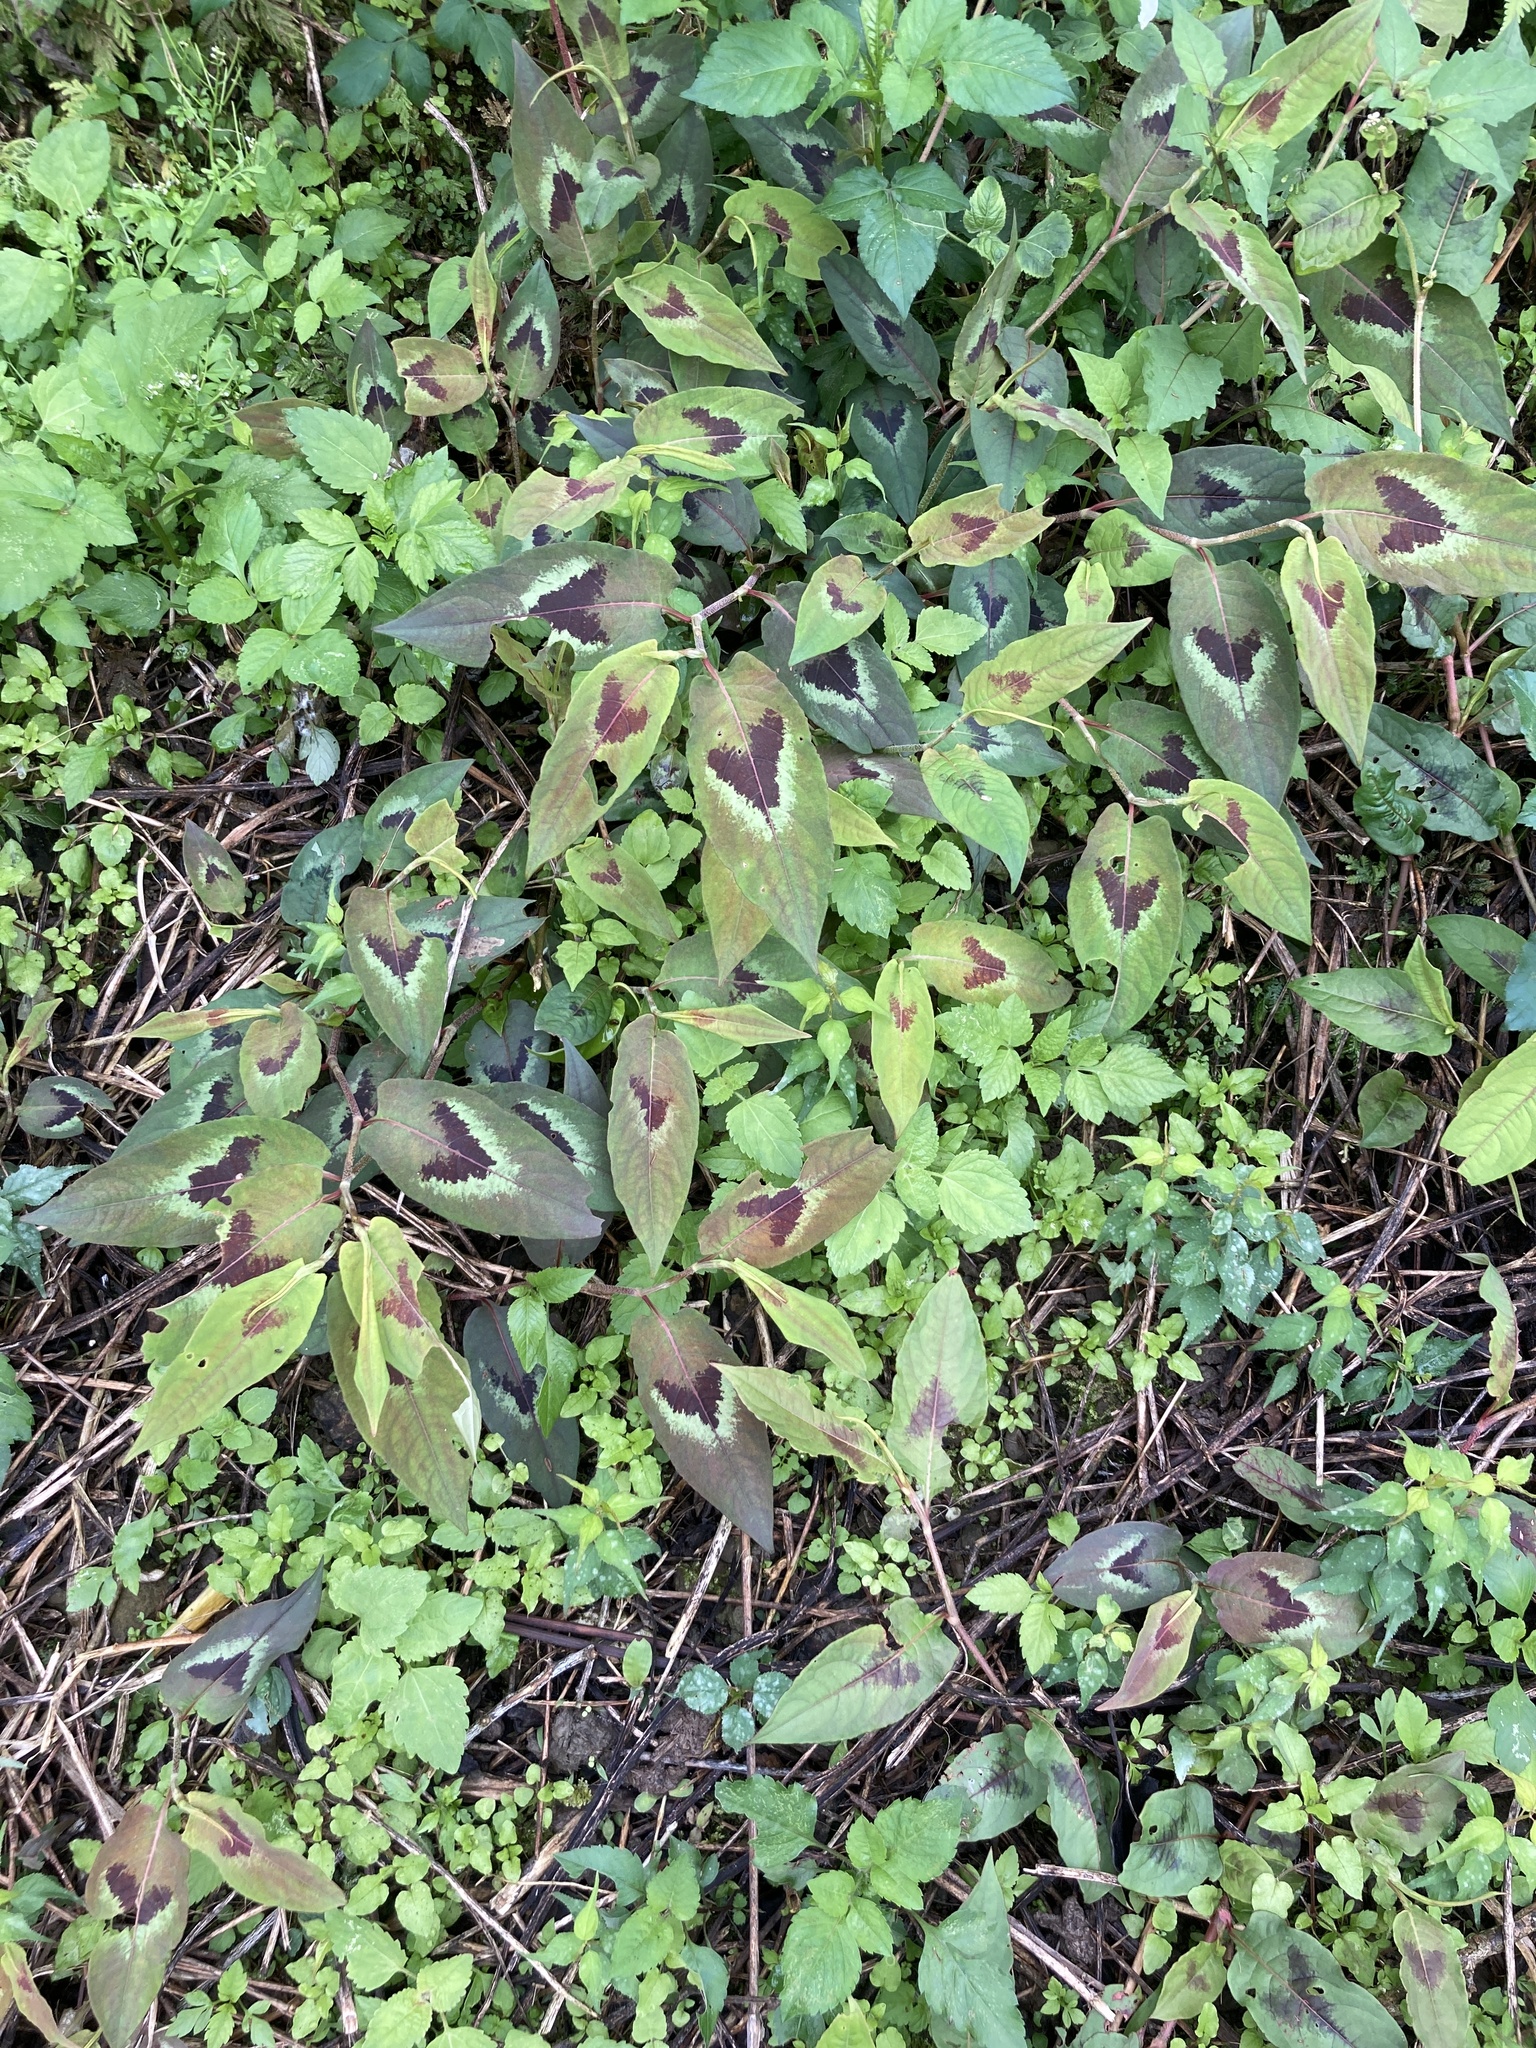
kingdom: Plantae
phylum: Tracheophyta
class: Magnoliopsida
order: Caryophyllales
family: Polygonaceae
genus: Persicaria
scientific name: Persicaria chinensis
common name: Chinese knotweed
